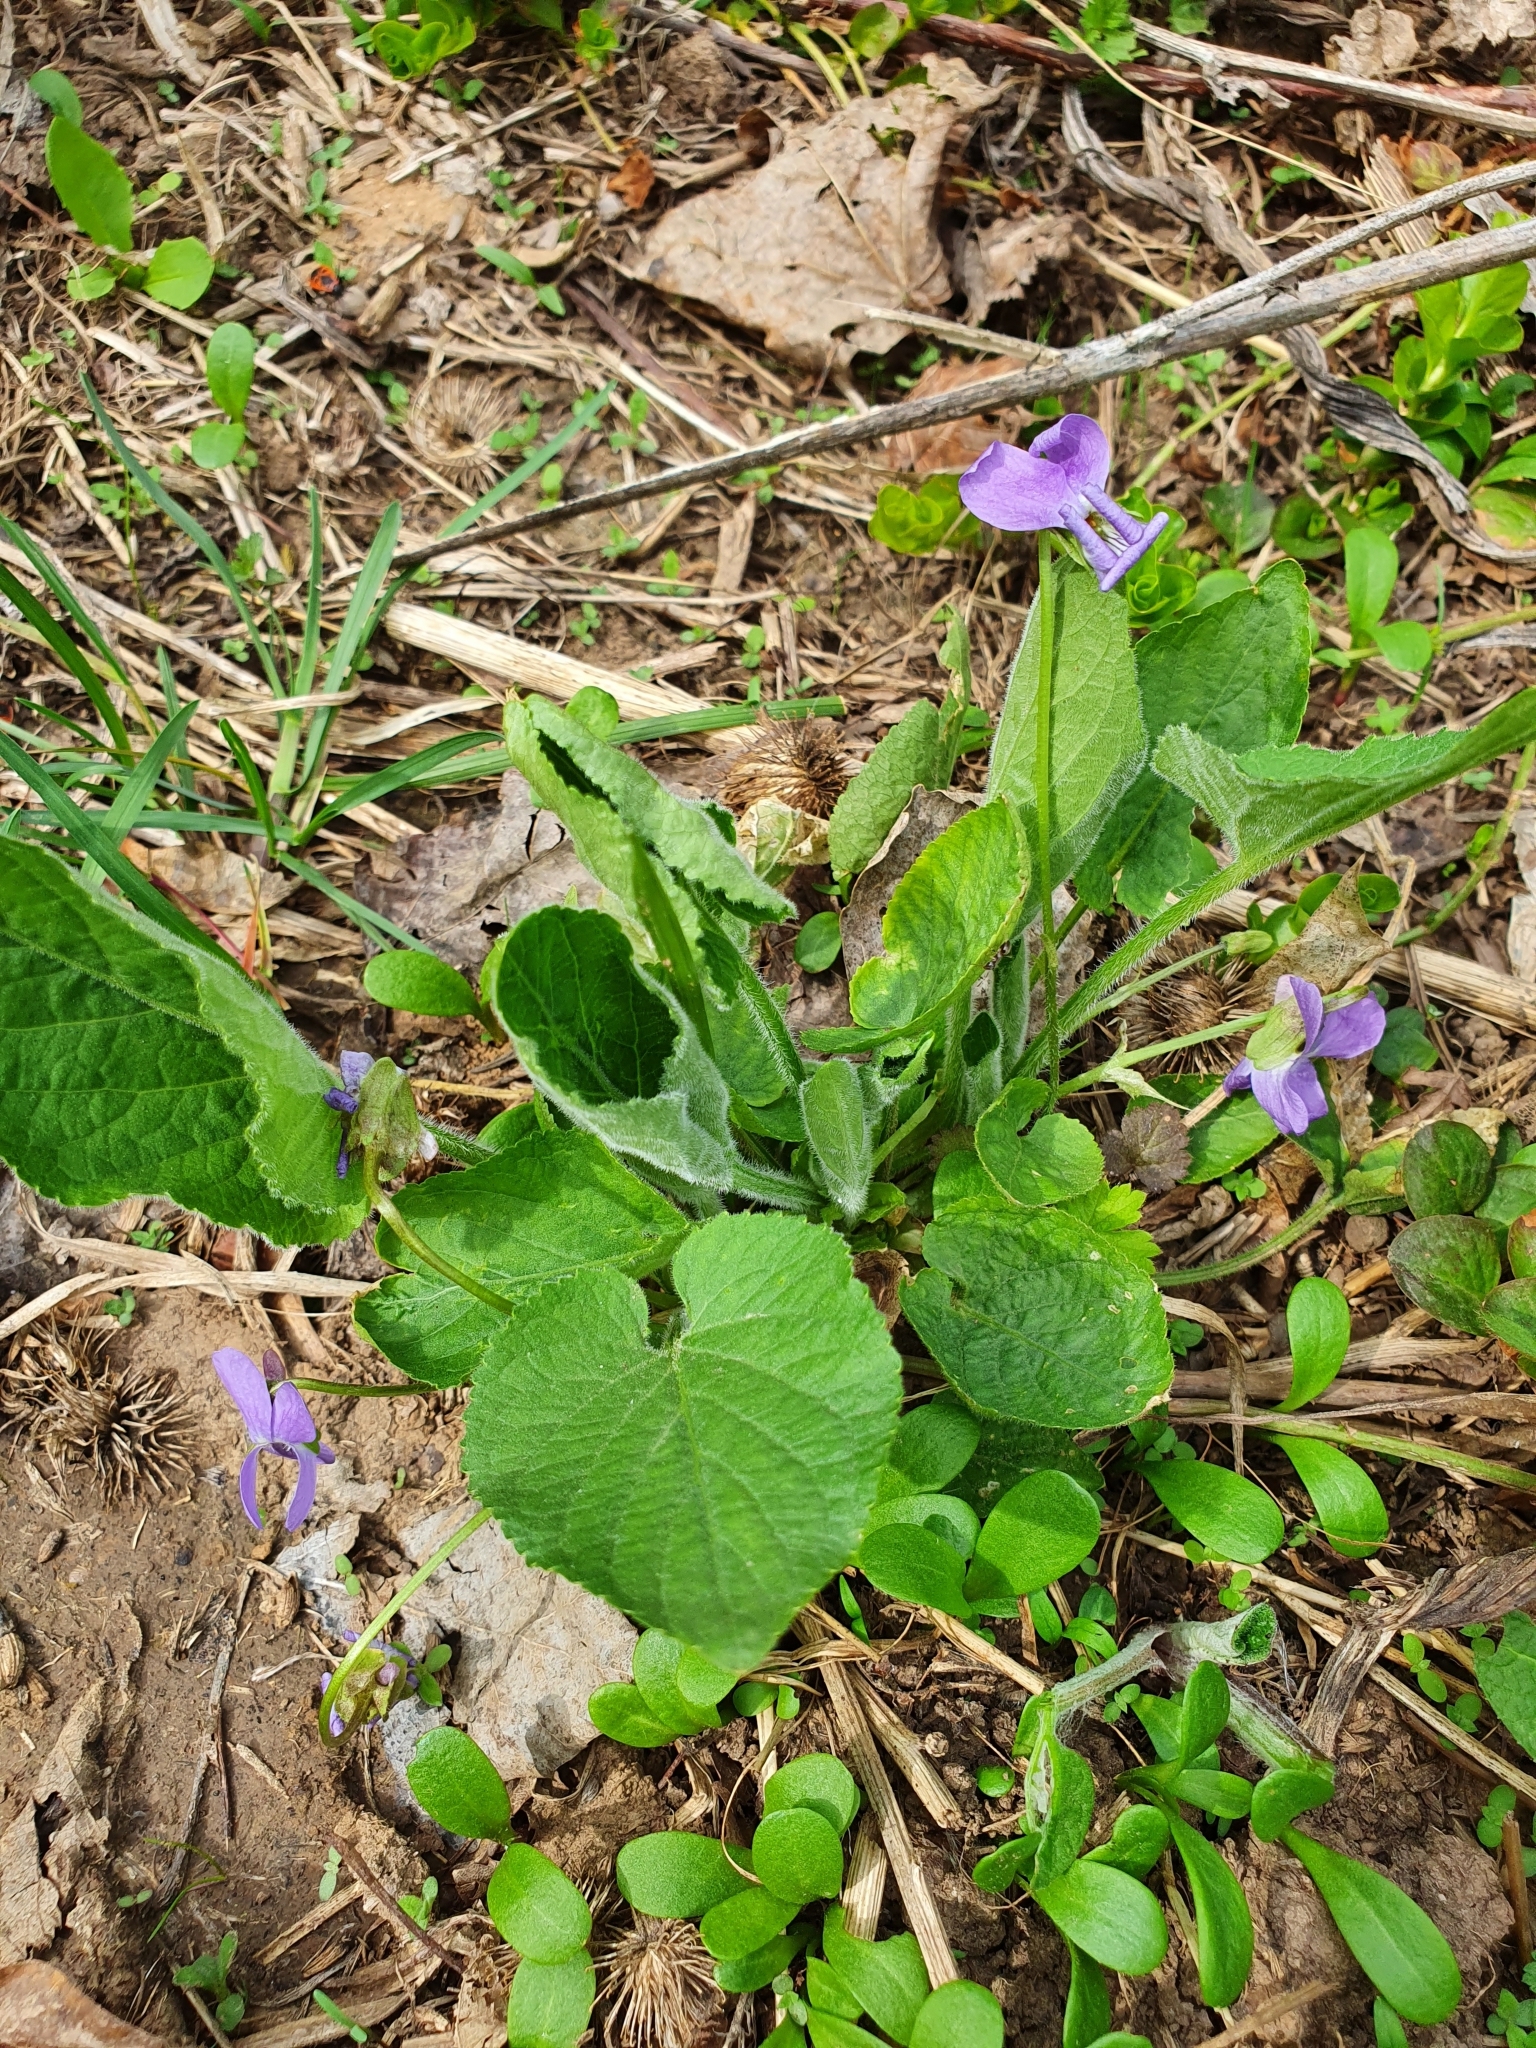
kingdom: Plantae
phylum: Tracheophyta
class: Magnoliopsida
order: Malpighiales
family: Violaceae
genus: Viola
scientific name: Viola collina
